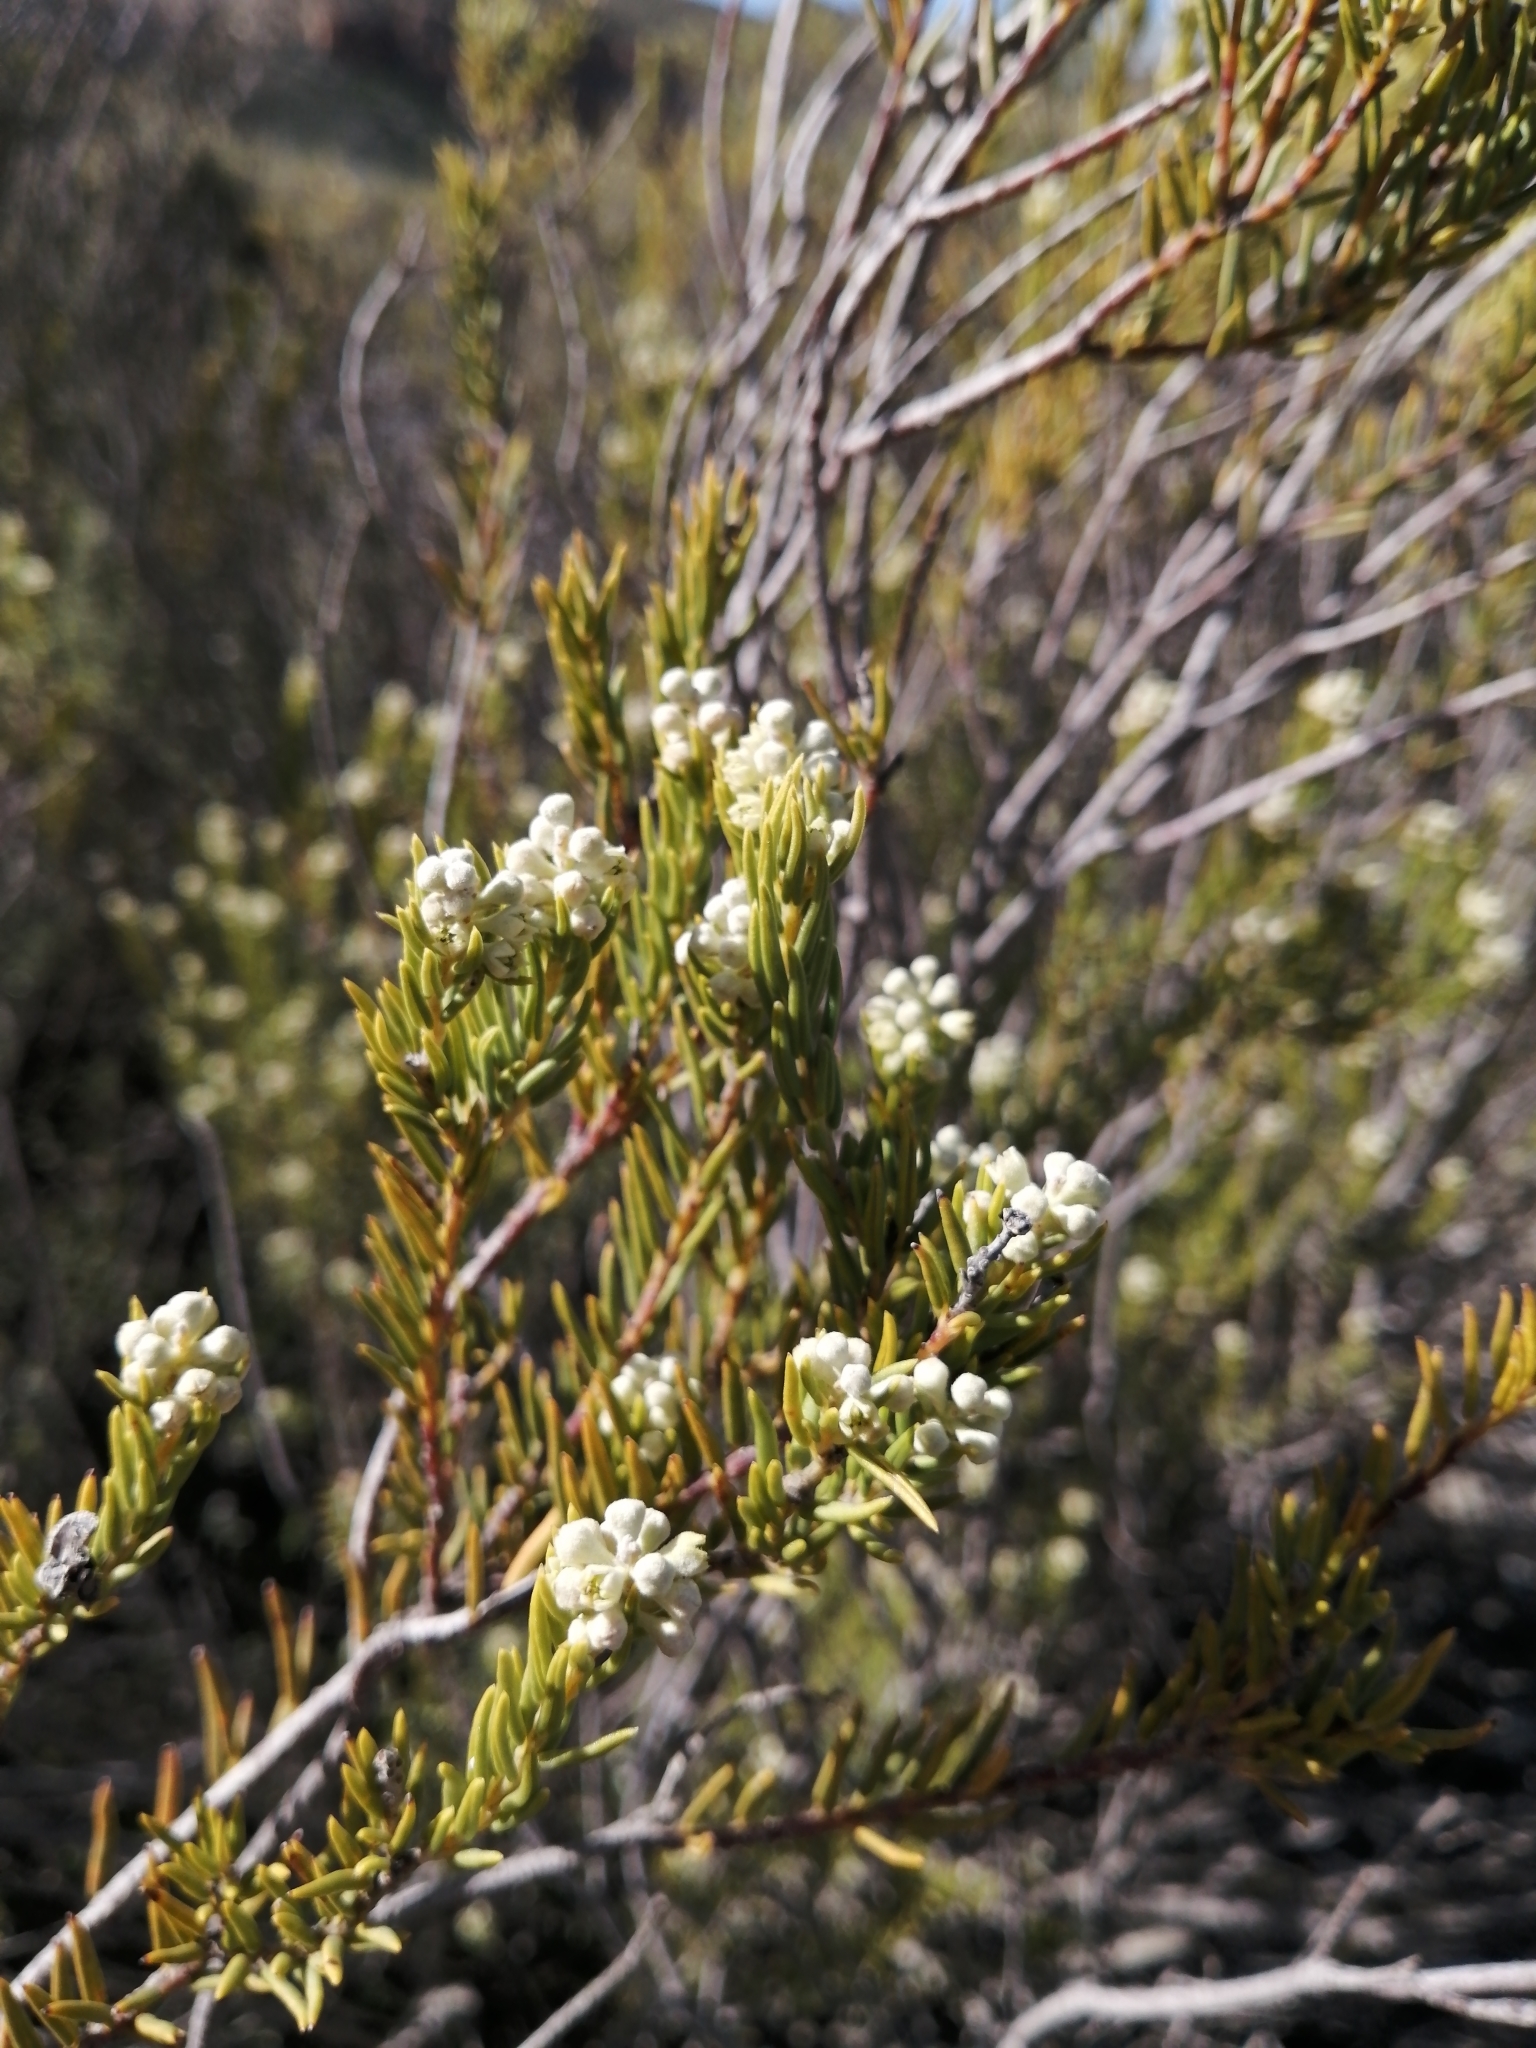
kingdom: Plantae
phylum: Tracheophyta
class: Magnoliopsida
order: Rosales
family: Rhamnaceae
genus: Phylica
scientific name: Phylica rigidifolia
